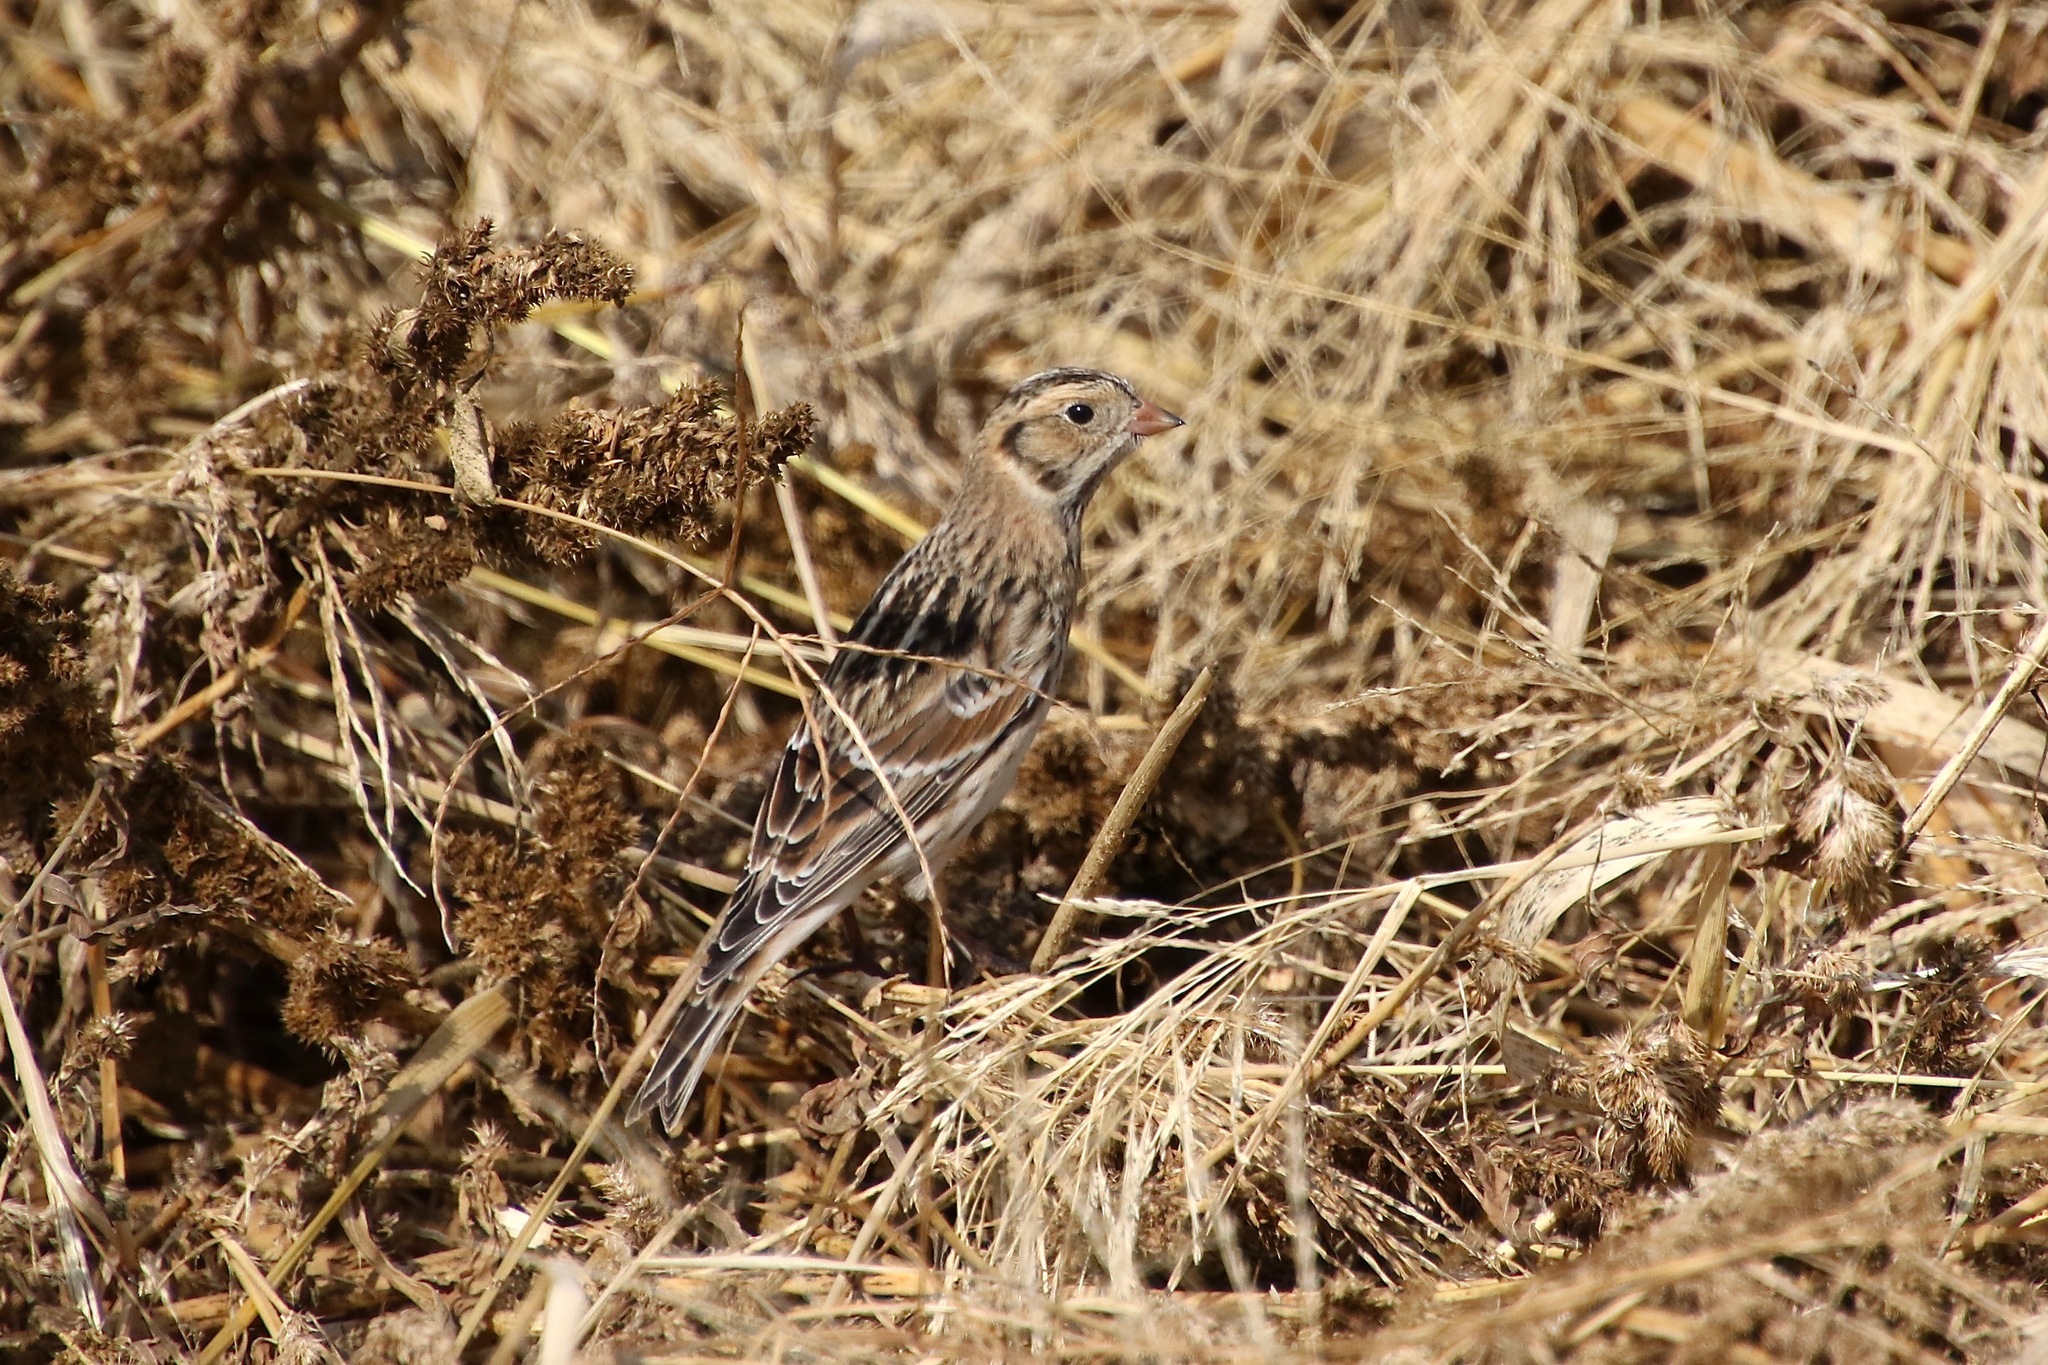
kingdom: Animalia
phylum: Chordata
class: Aves
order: Passeriformes
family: Calcariidae
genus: Calcarius
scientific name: Calcarius lapponicus
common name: Lapland longspur
